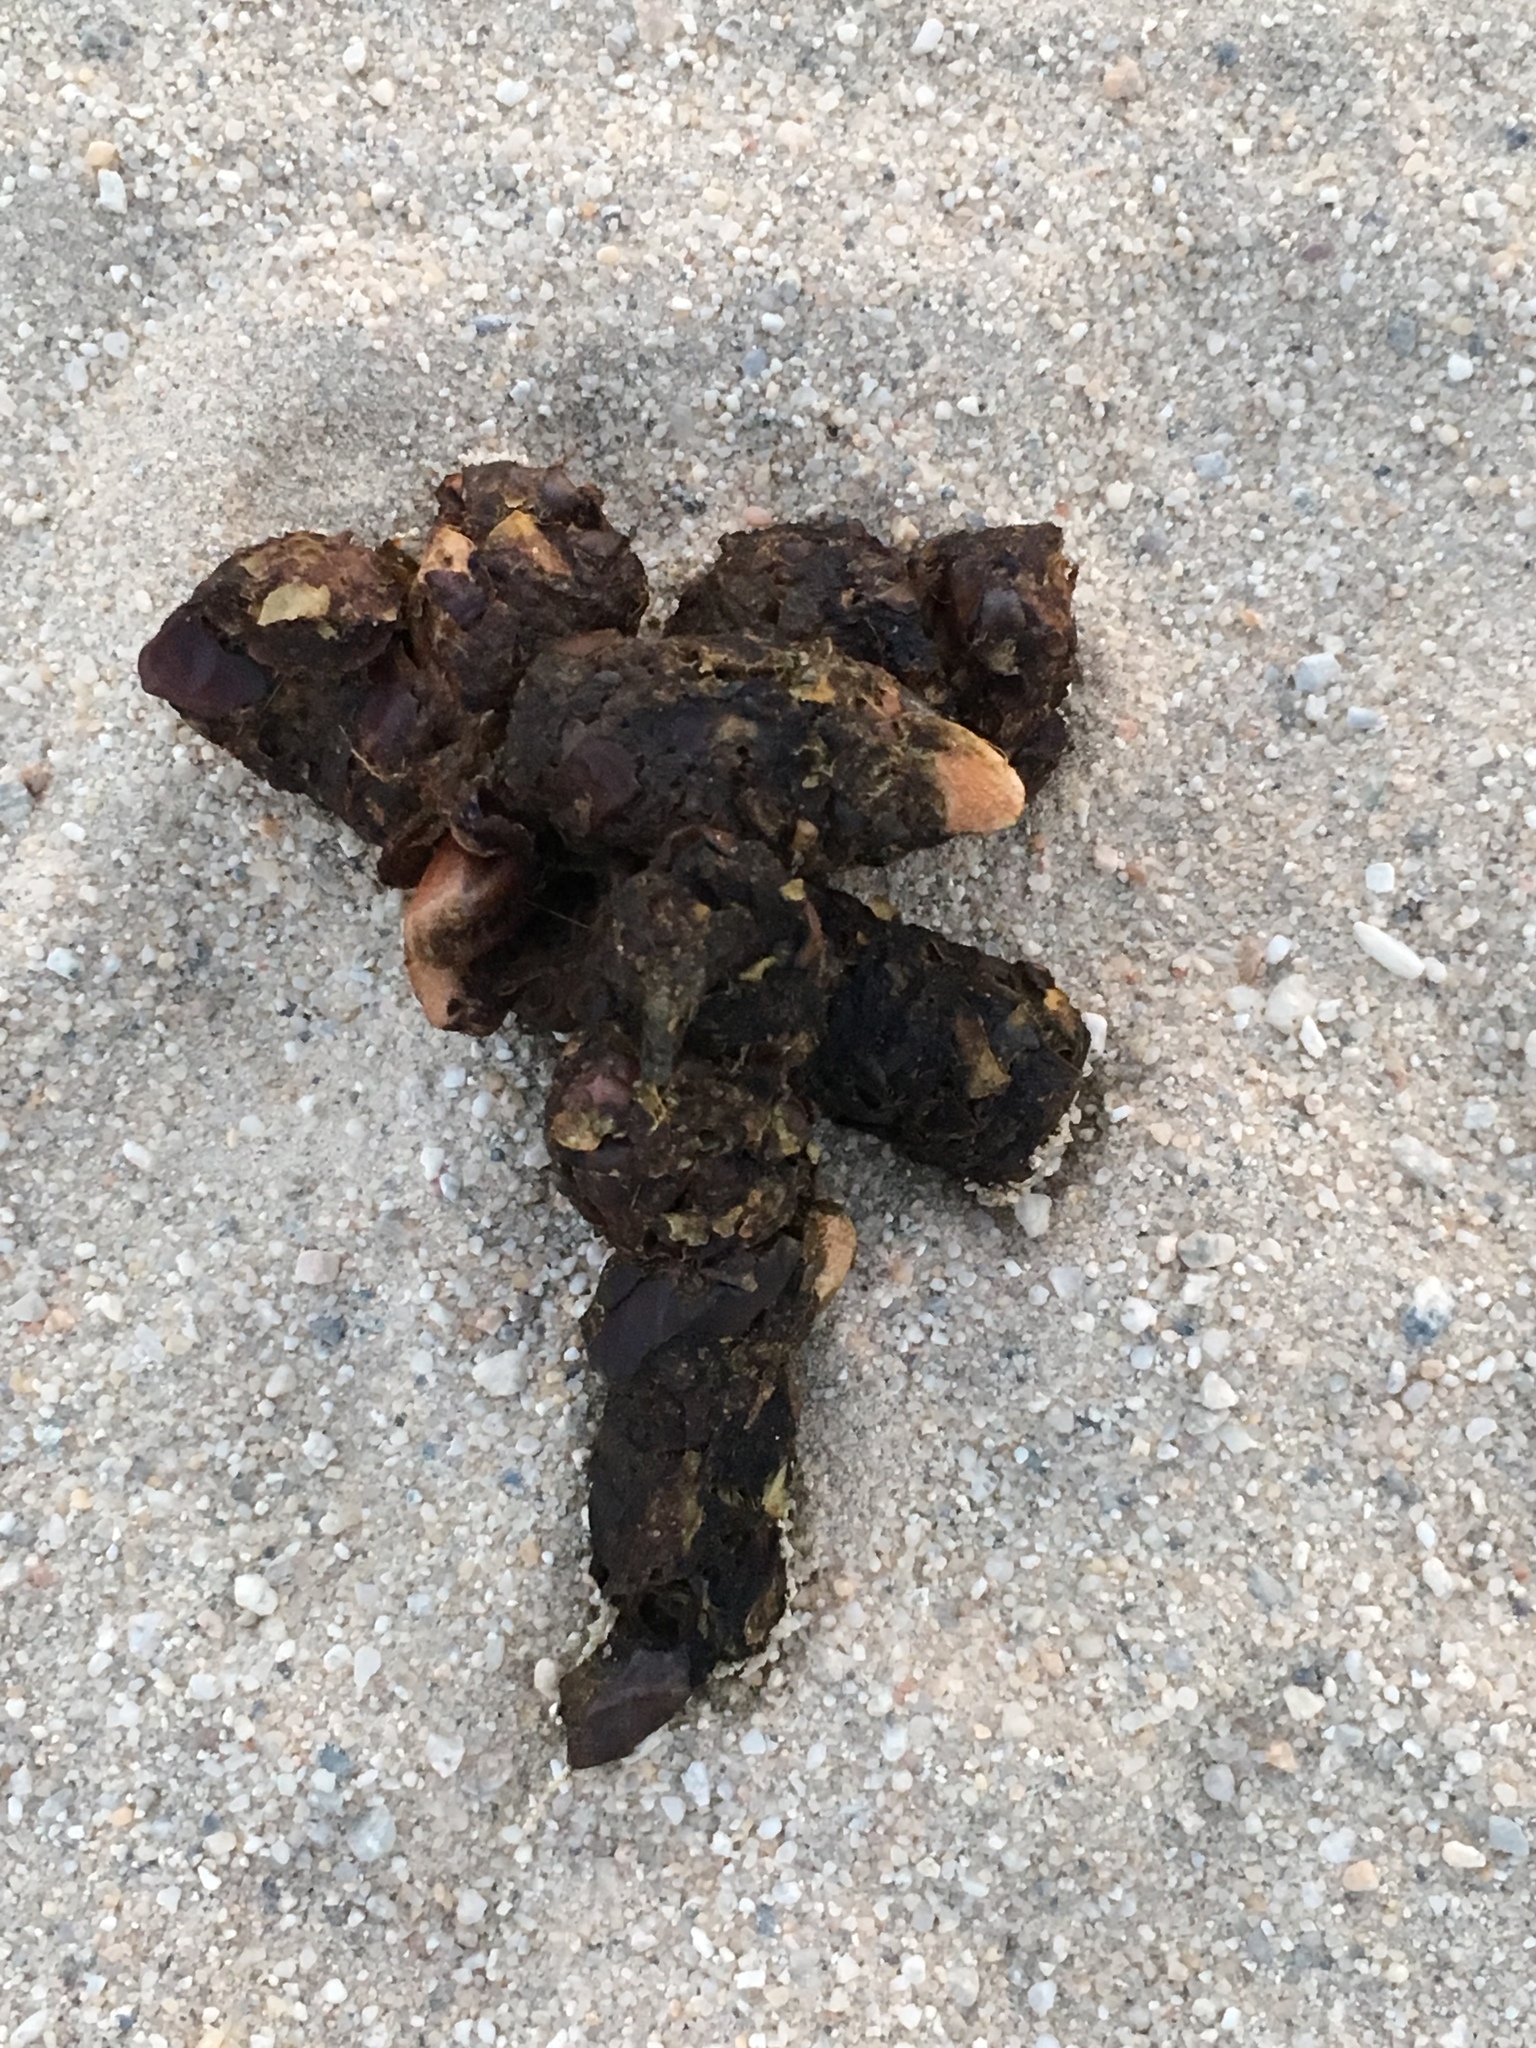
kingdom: Animalia
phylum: Chordata
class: Mammalia
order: Carnivora
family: Canidae
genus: Canis
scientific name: Canis latrans
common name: Coyote
